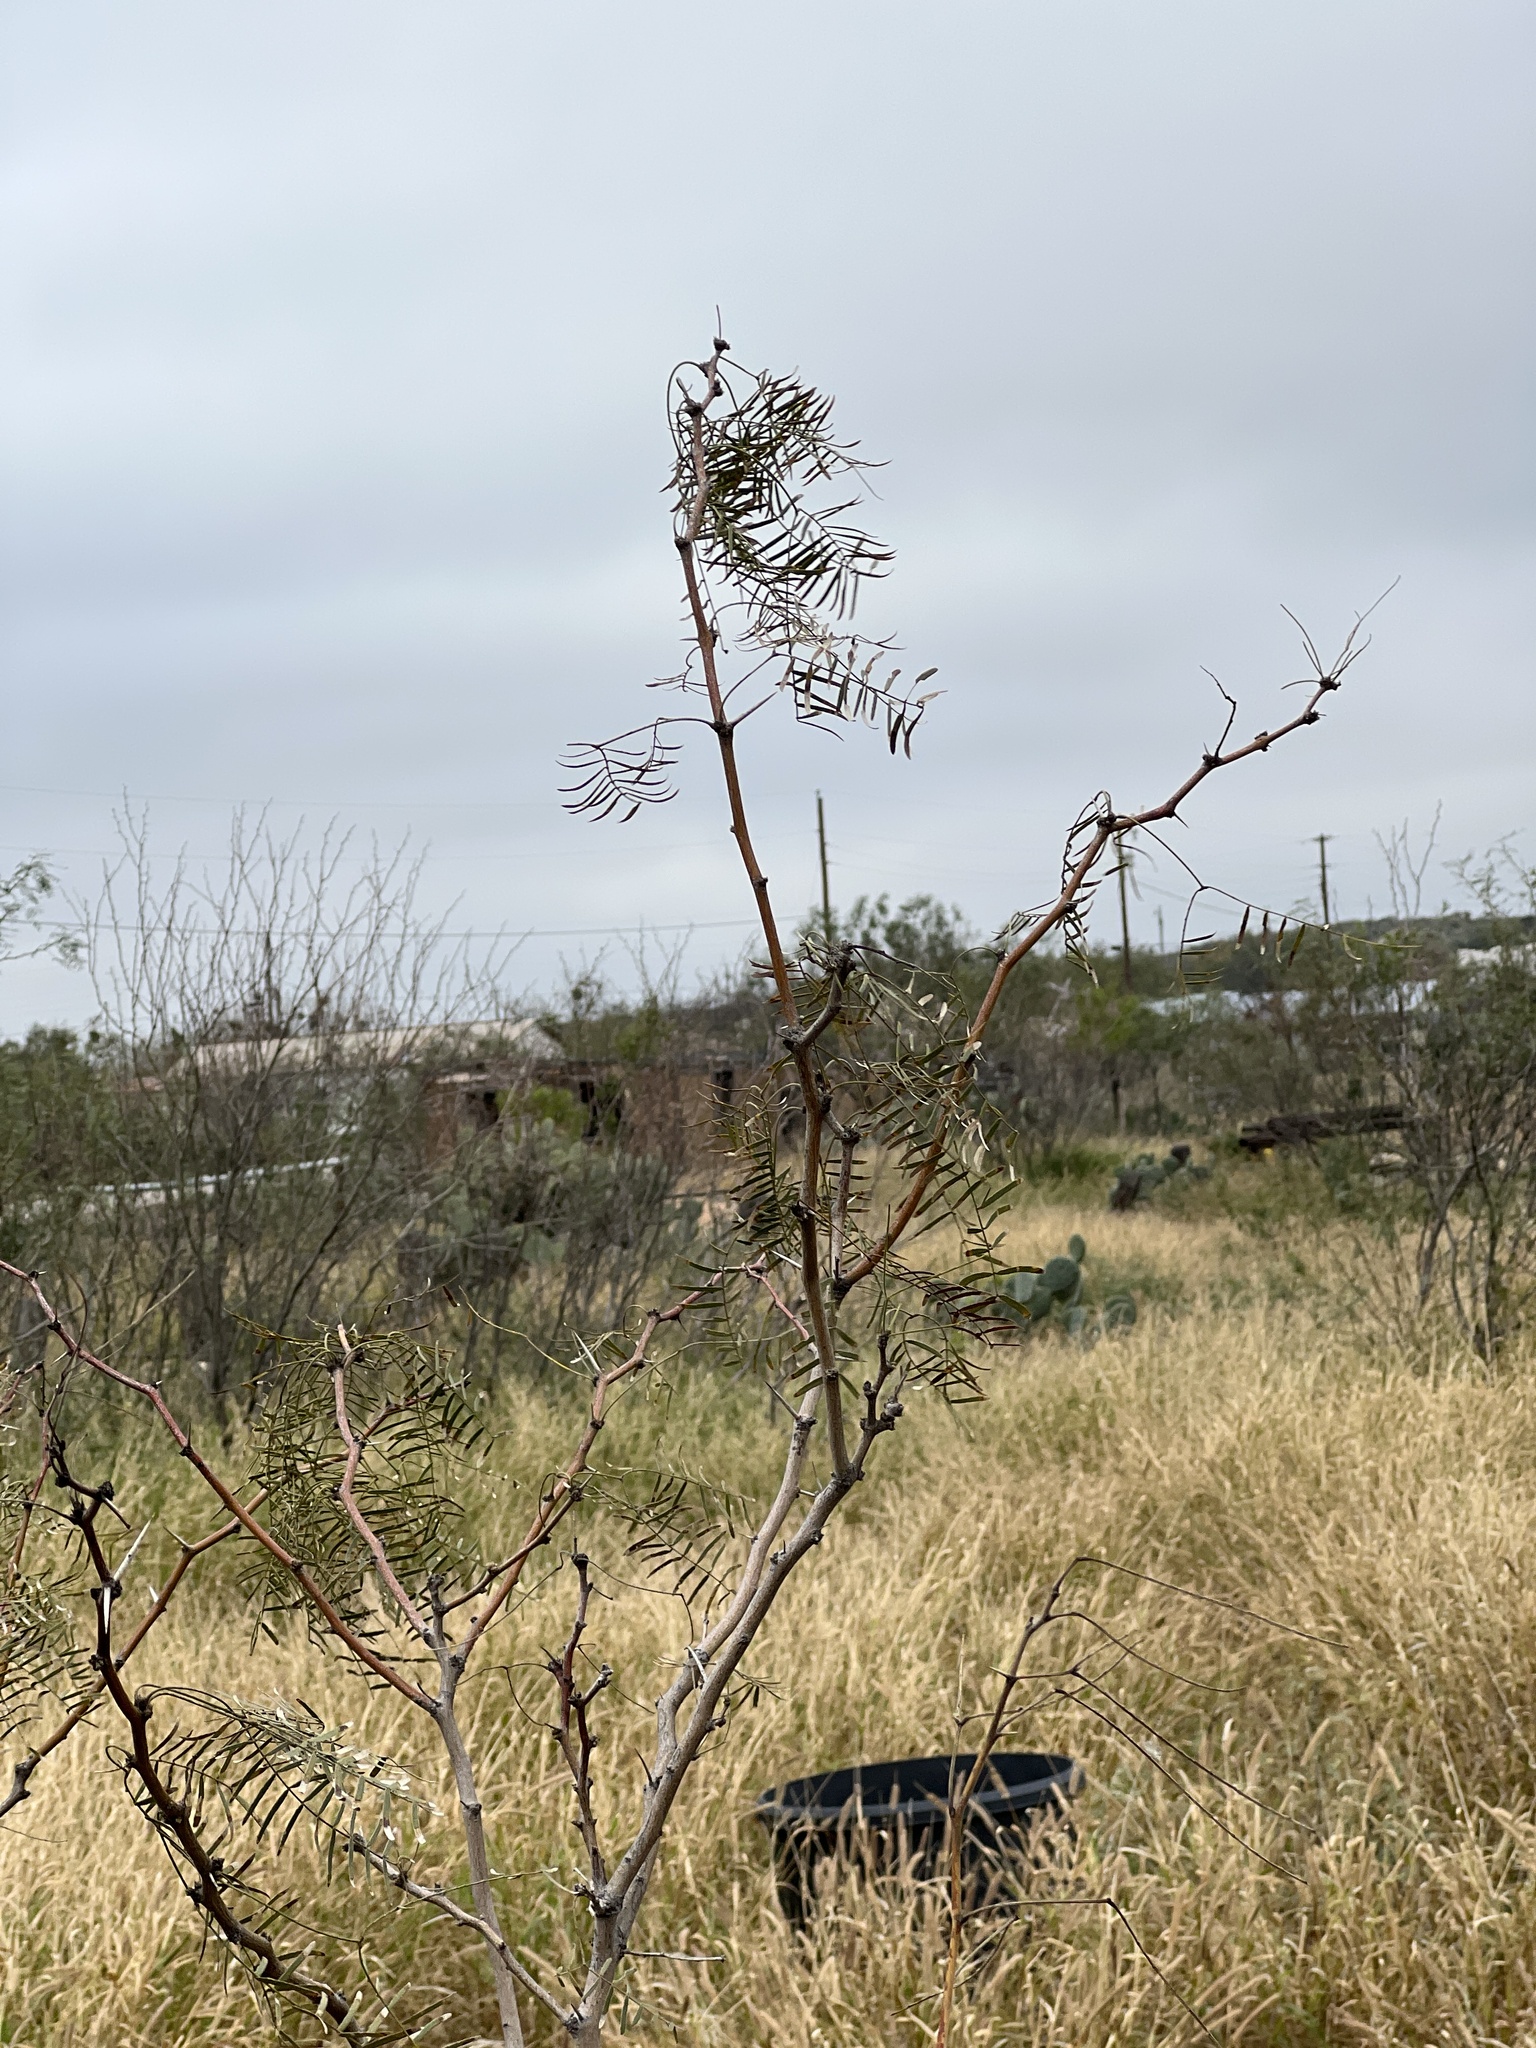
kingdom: Plantae
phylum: Tracheophyta
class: Magnoliopsida
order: Fabales
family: Fabaceae
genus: Prosopis
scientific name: Prosopis glandulosa
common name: Honey mesquite
